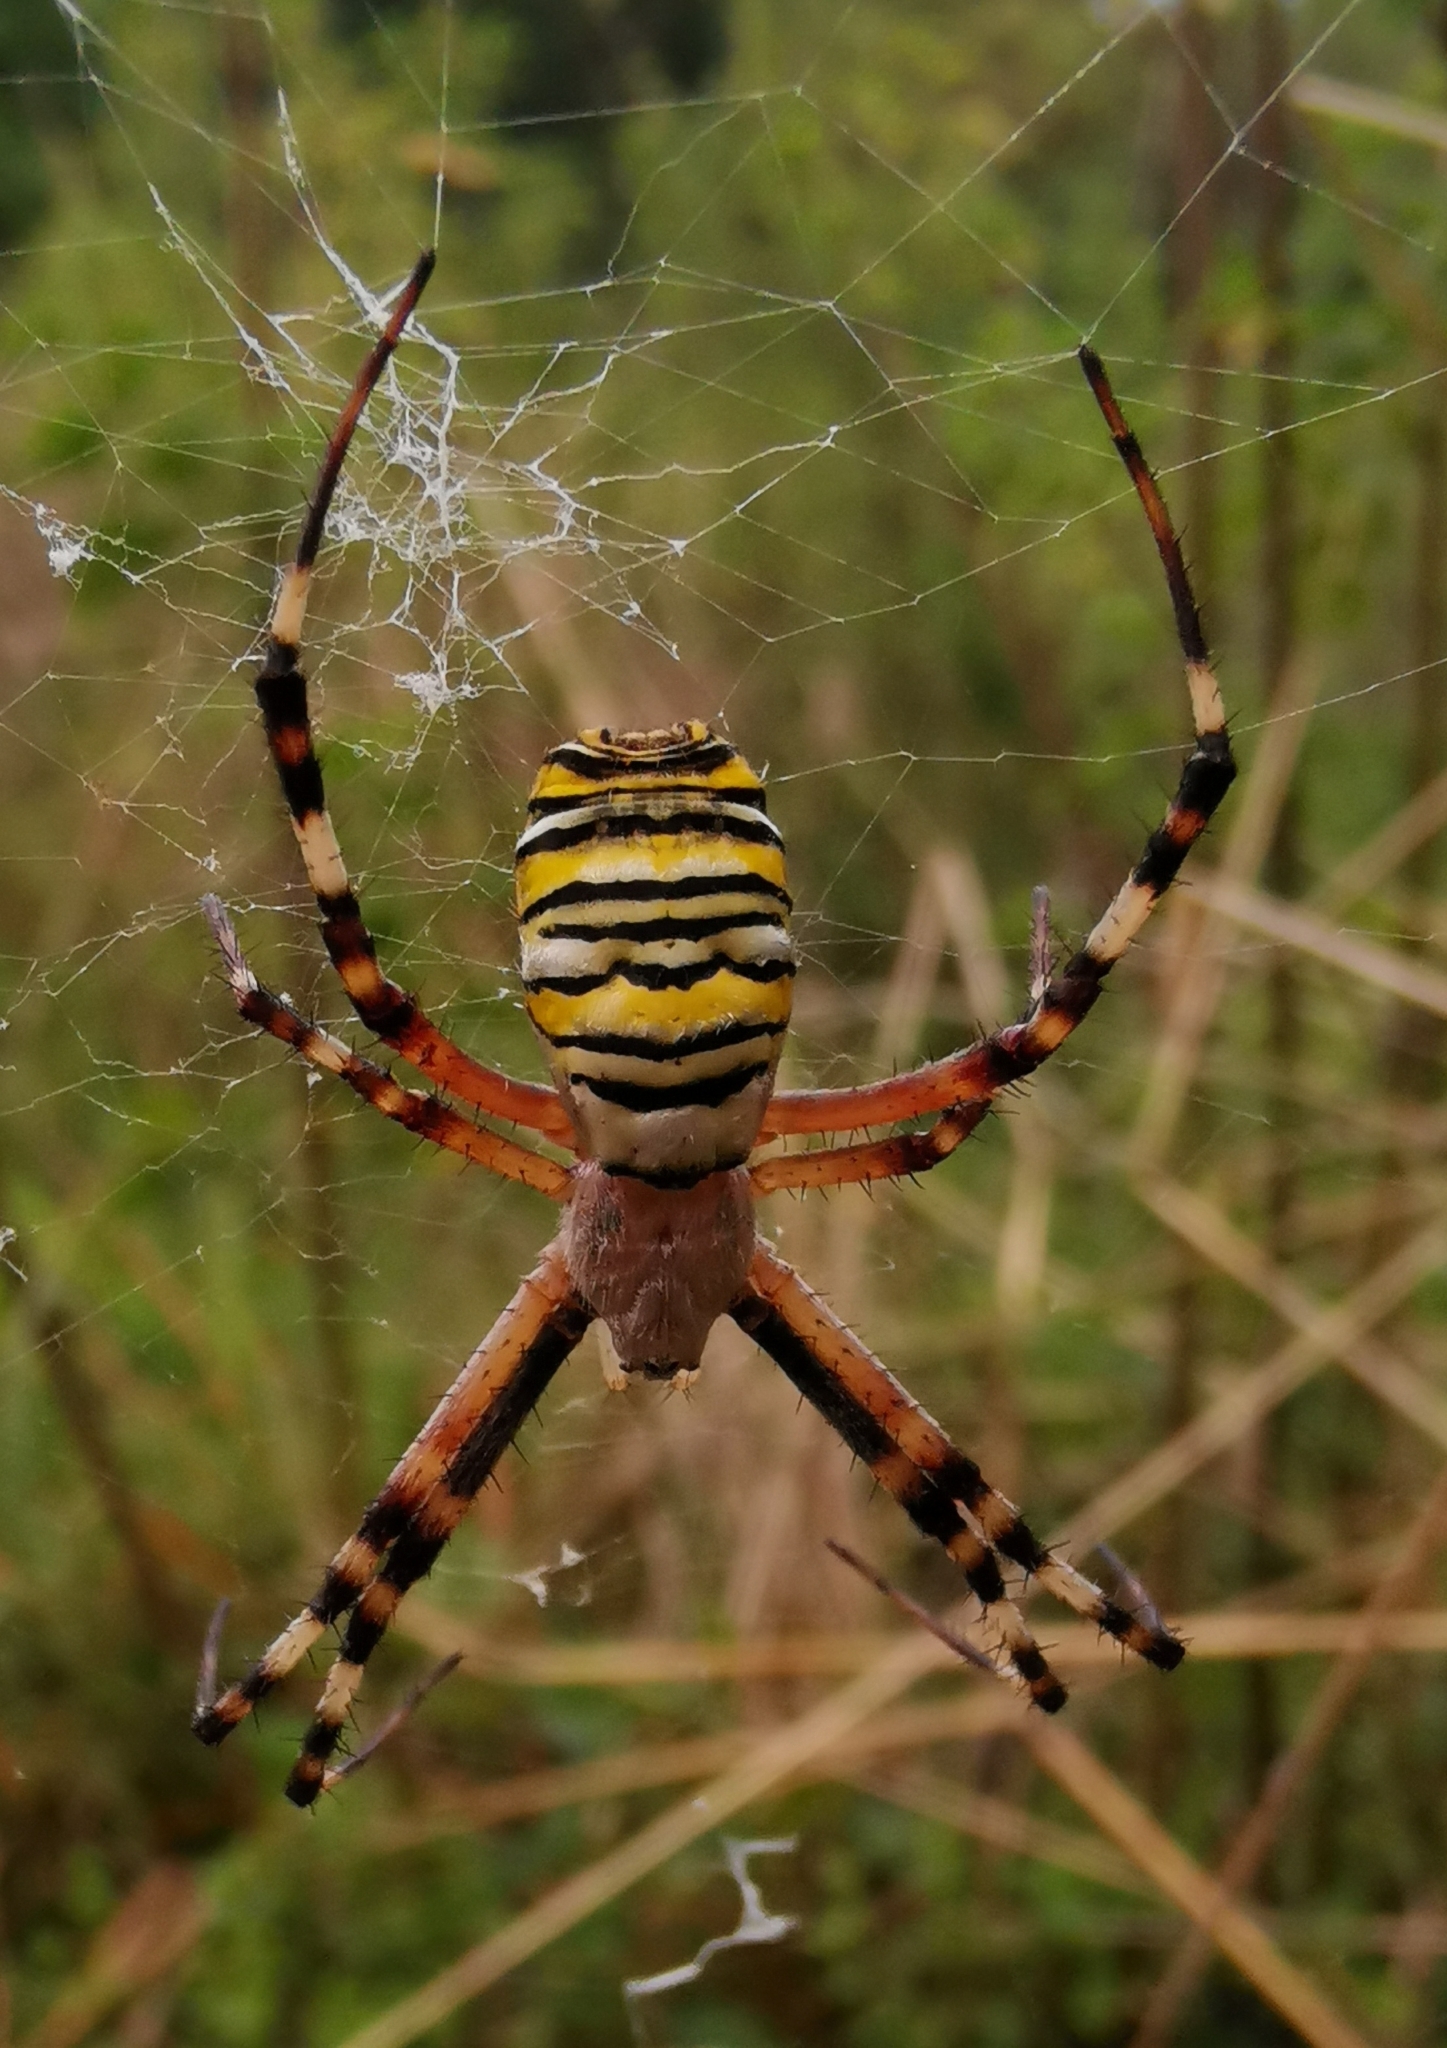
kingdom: Animalia
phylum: Arthropoda
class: Arachnida
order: Araneae
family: Araneidae
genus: Argiope
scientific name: Argiope bruennichi
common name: Wasp spider
